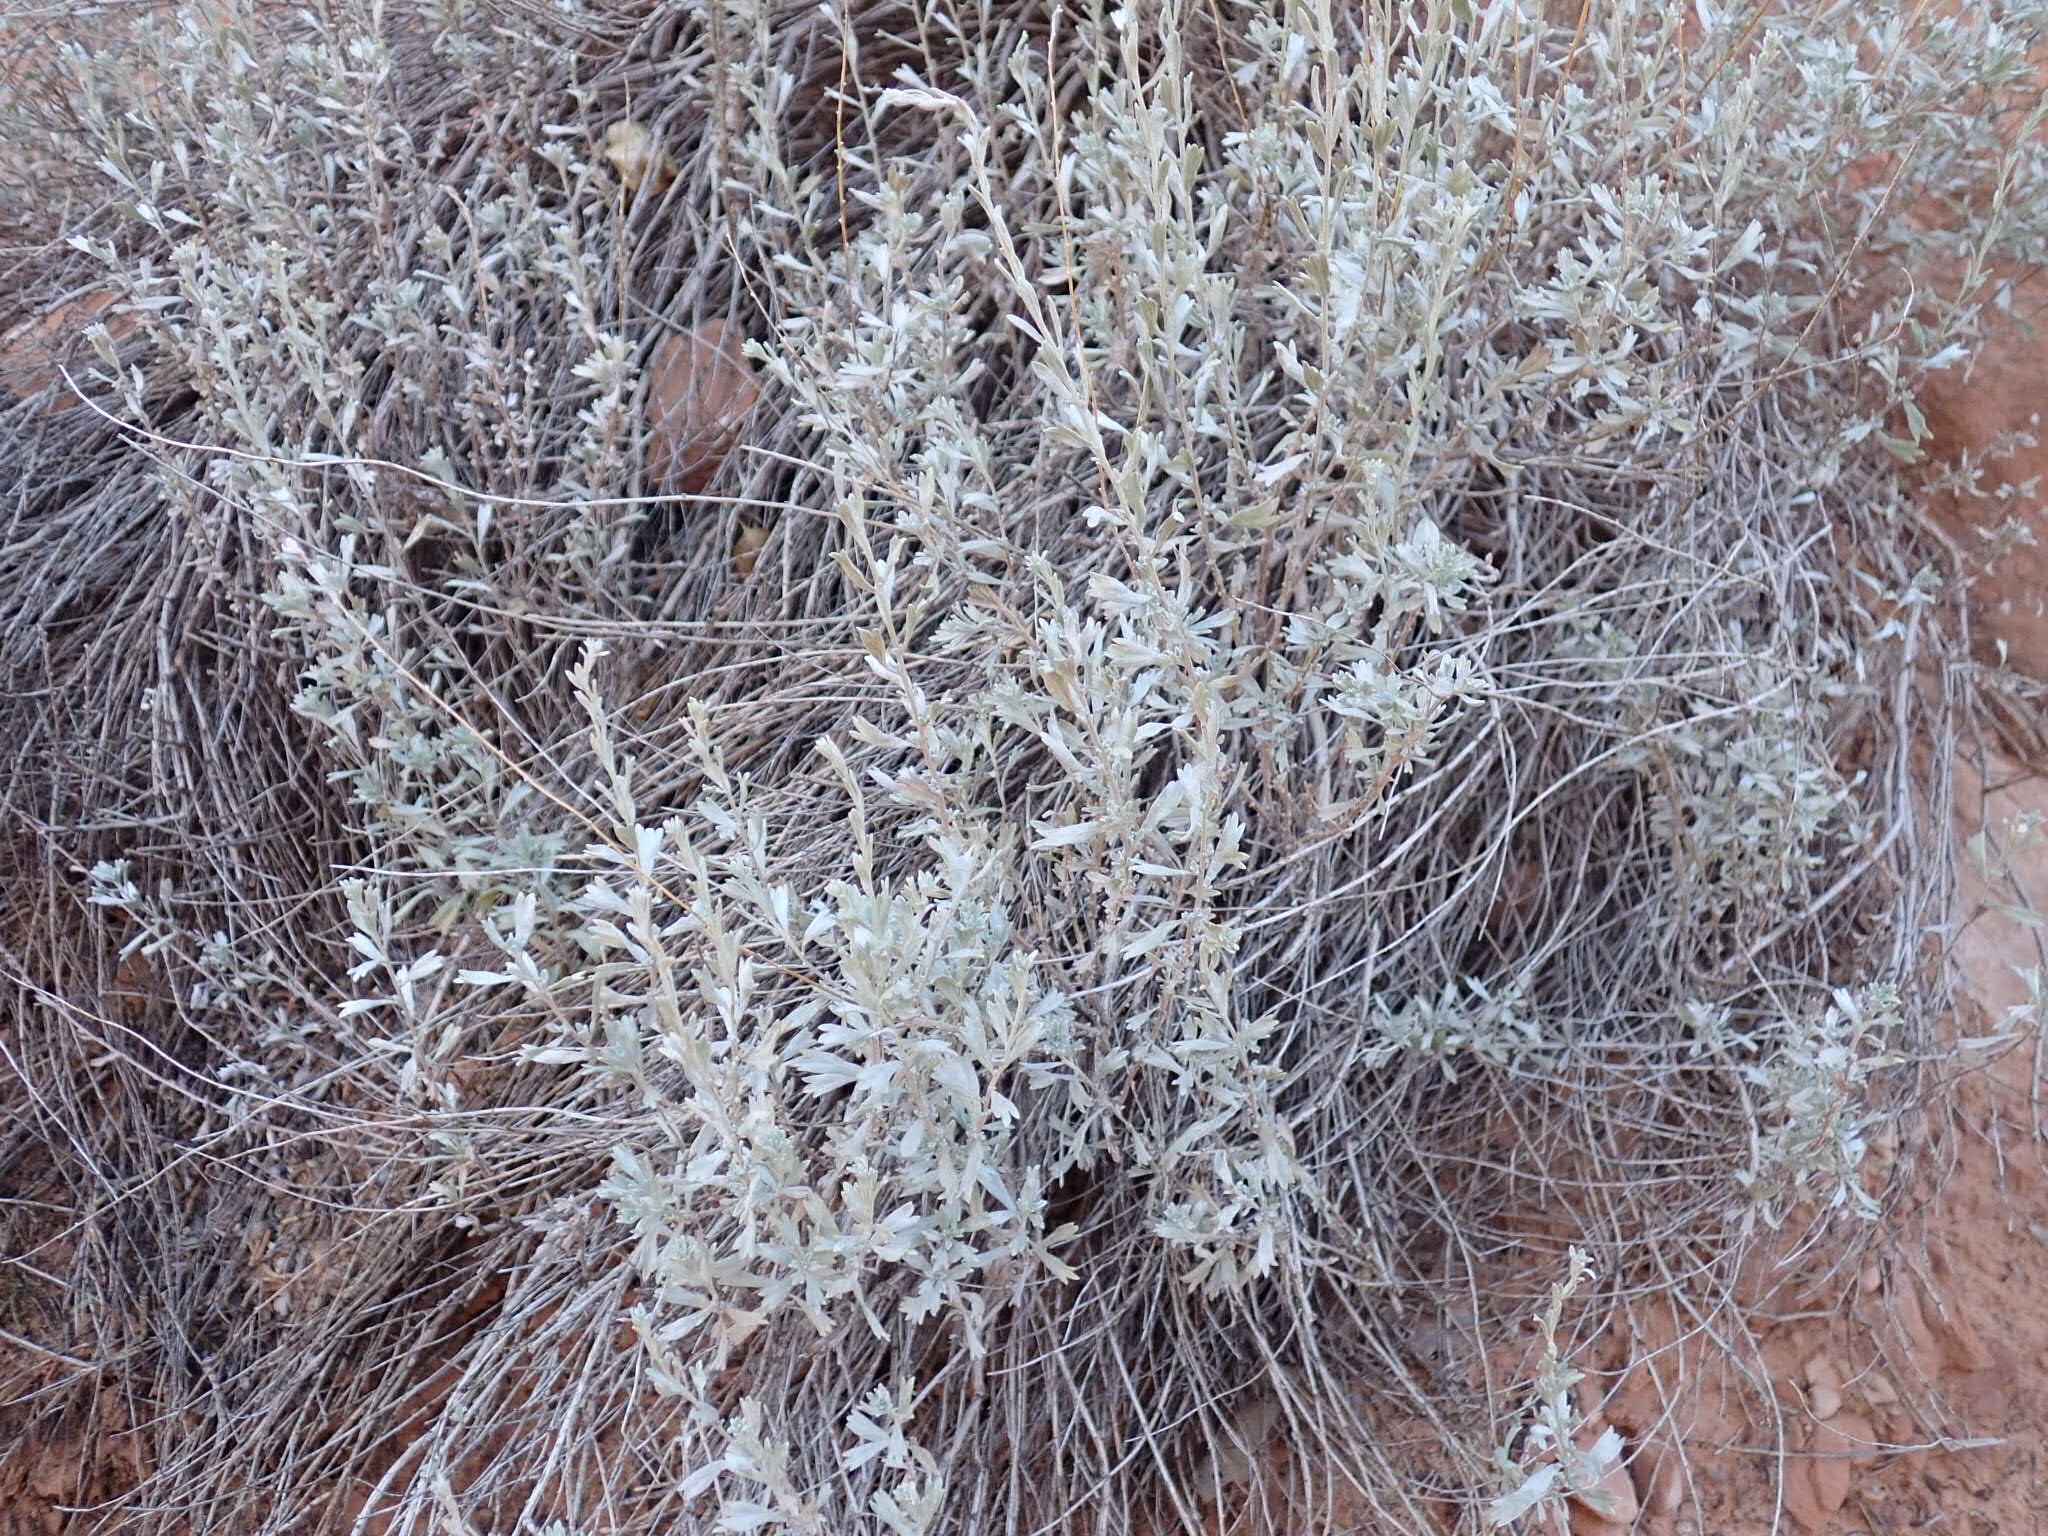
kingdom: Plantae
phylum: Tracheophyta
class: Magnoliopsida
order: Asterales
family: Asteraceae
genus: Artemisia
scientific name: Artemisia tridentata
